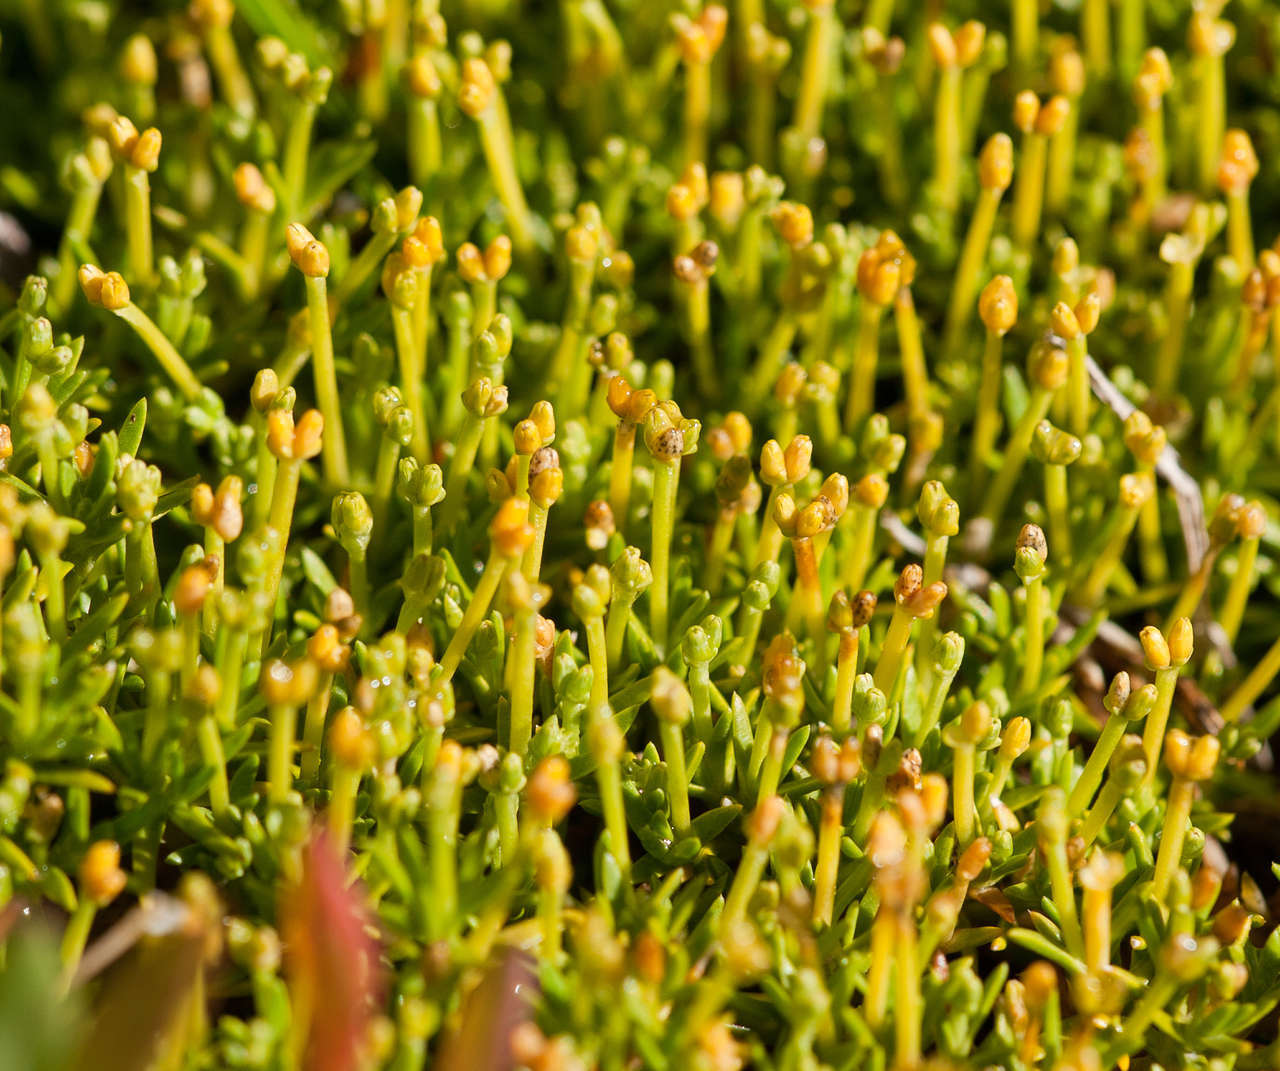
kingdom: Plantae
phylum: Tracheophyta
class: Magnoliopsida
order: Caryophyllales
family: Caryophyllaceae
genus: Scleranthus
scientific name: Scleranthus biflorus
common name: Two-flower knawel
